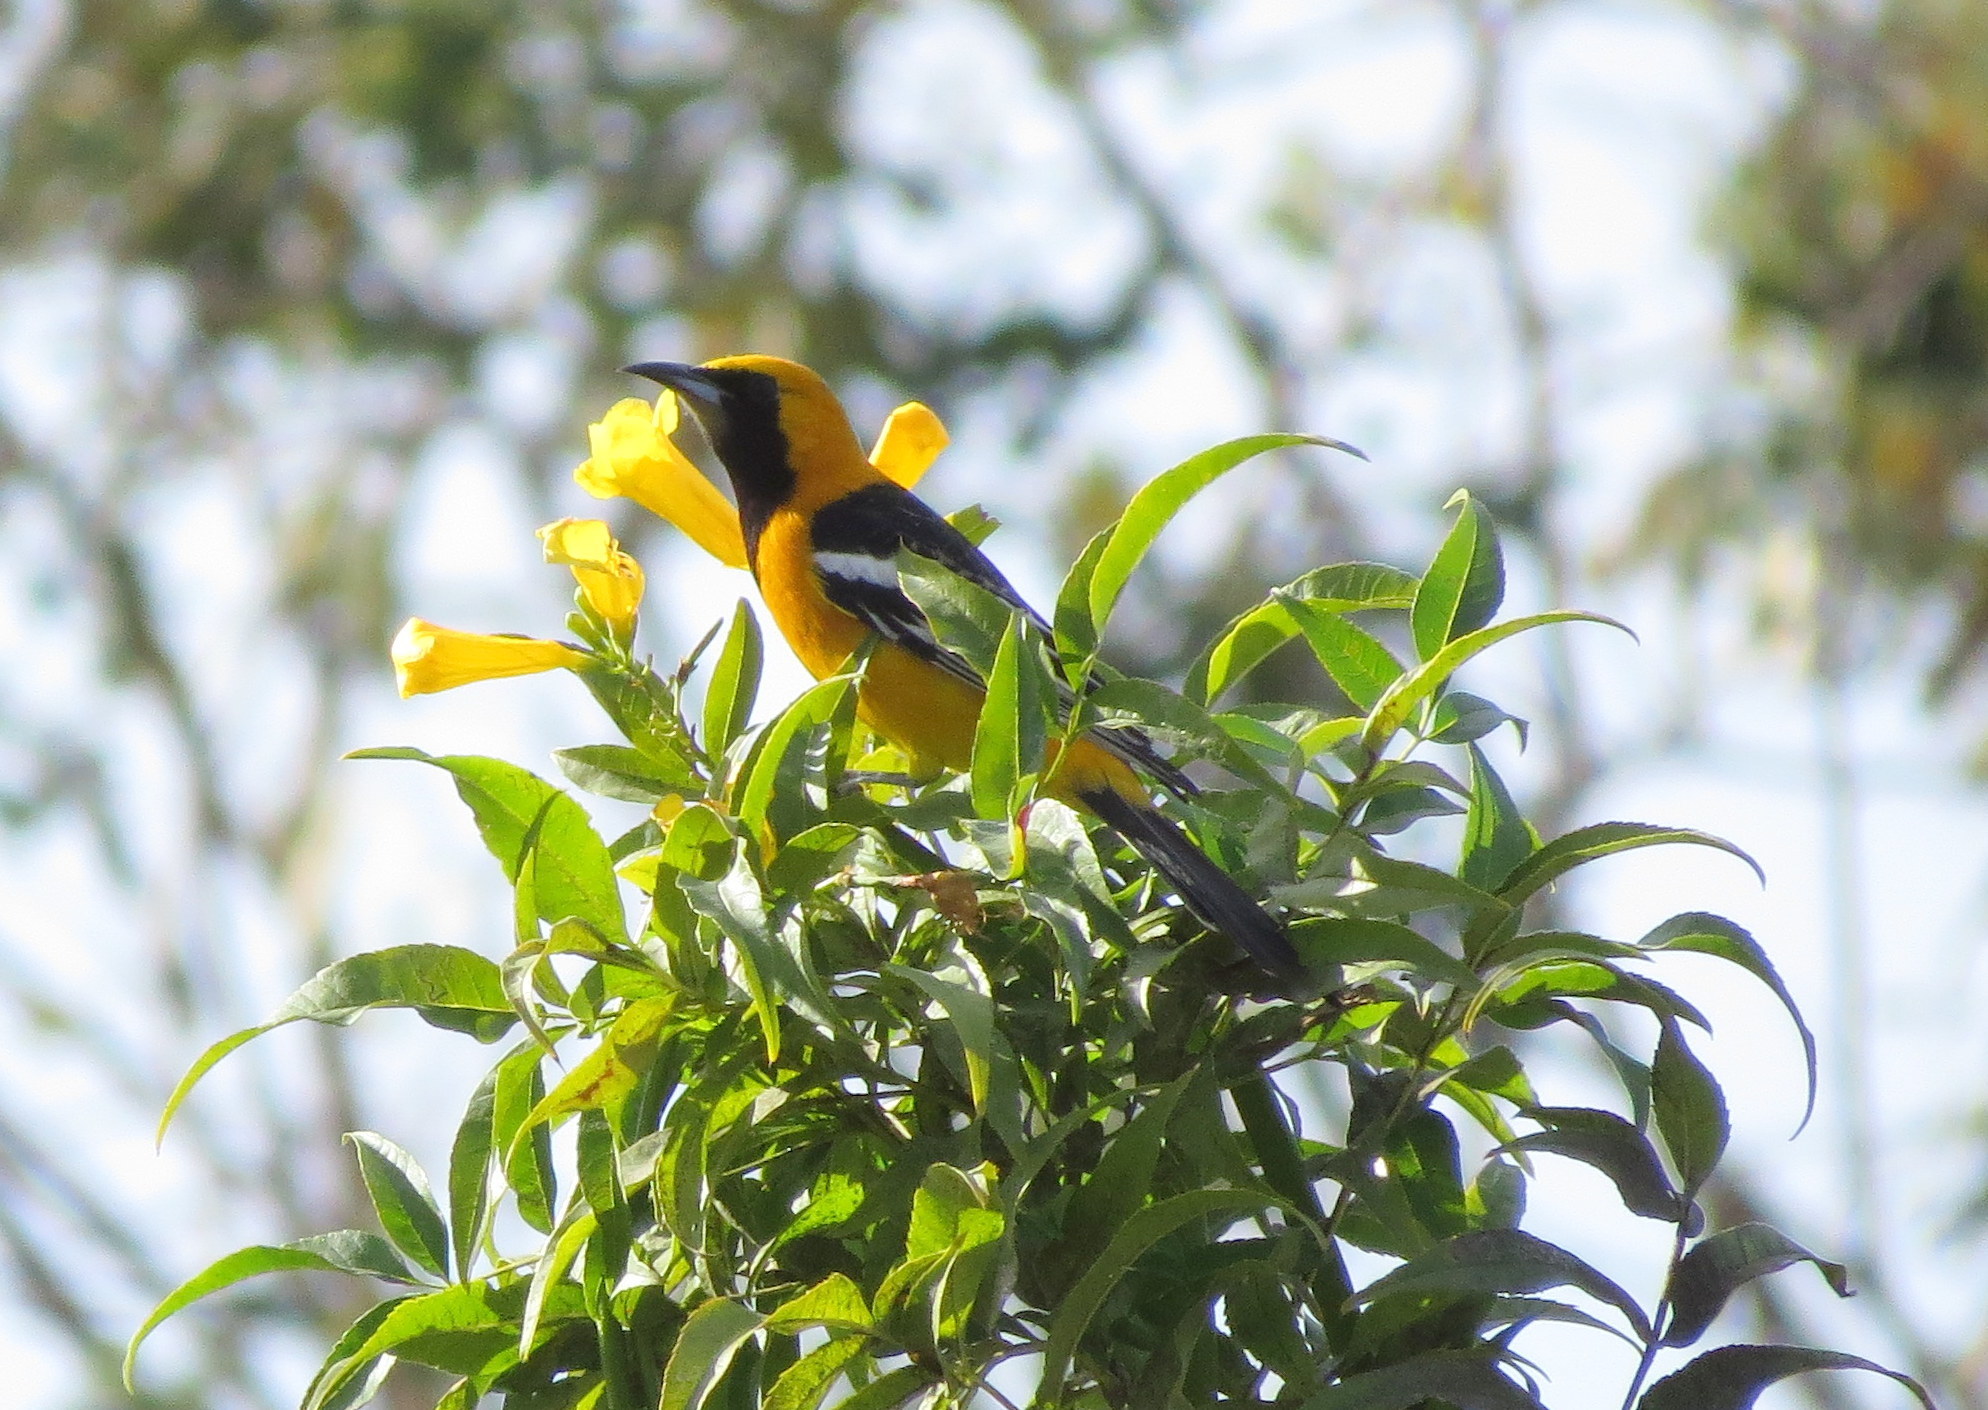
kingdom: Animalia
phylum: Chordata
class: Aves
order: Passeriformes
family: Icteridae
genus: Icterus
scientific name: Icterus cucullatus
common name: Hooded oriole
